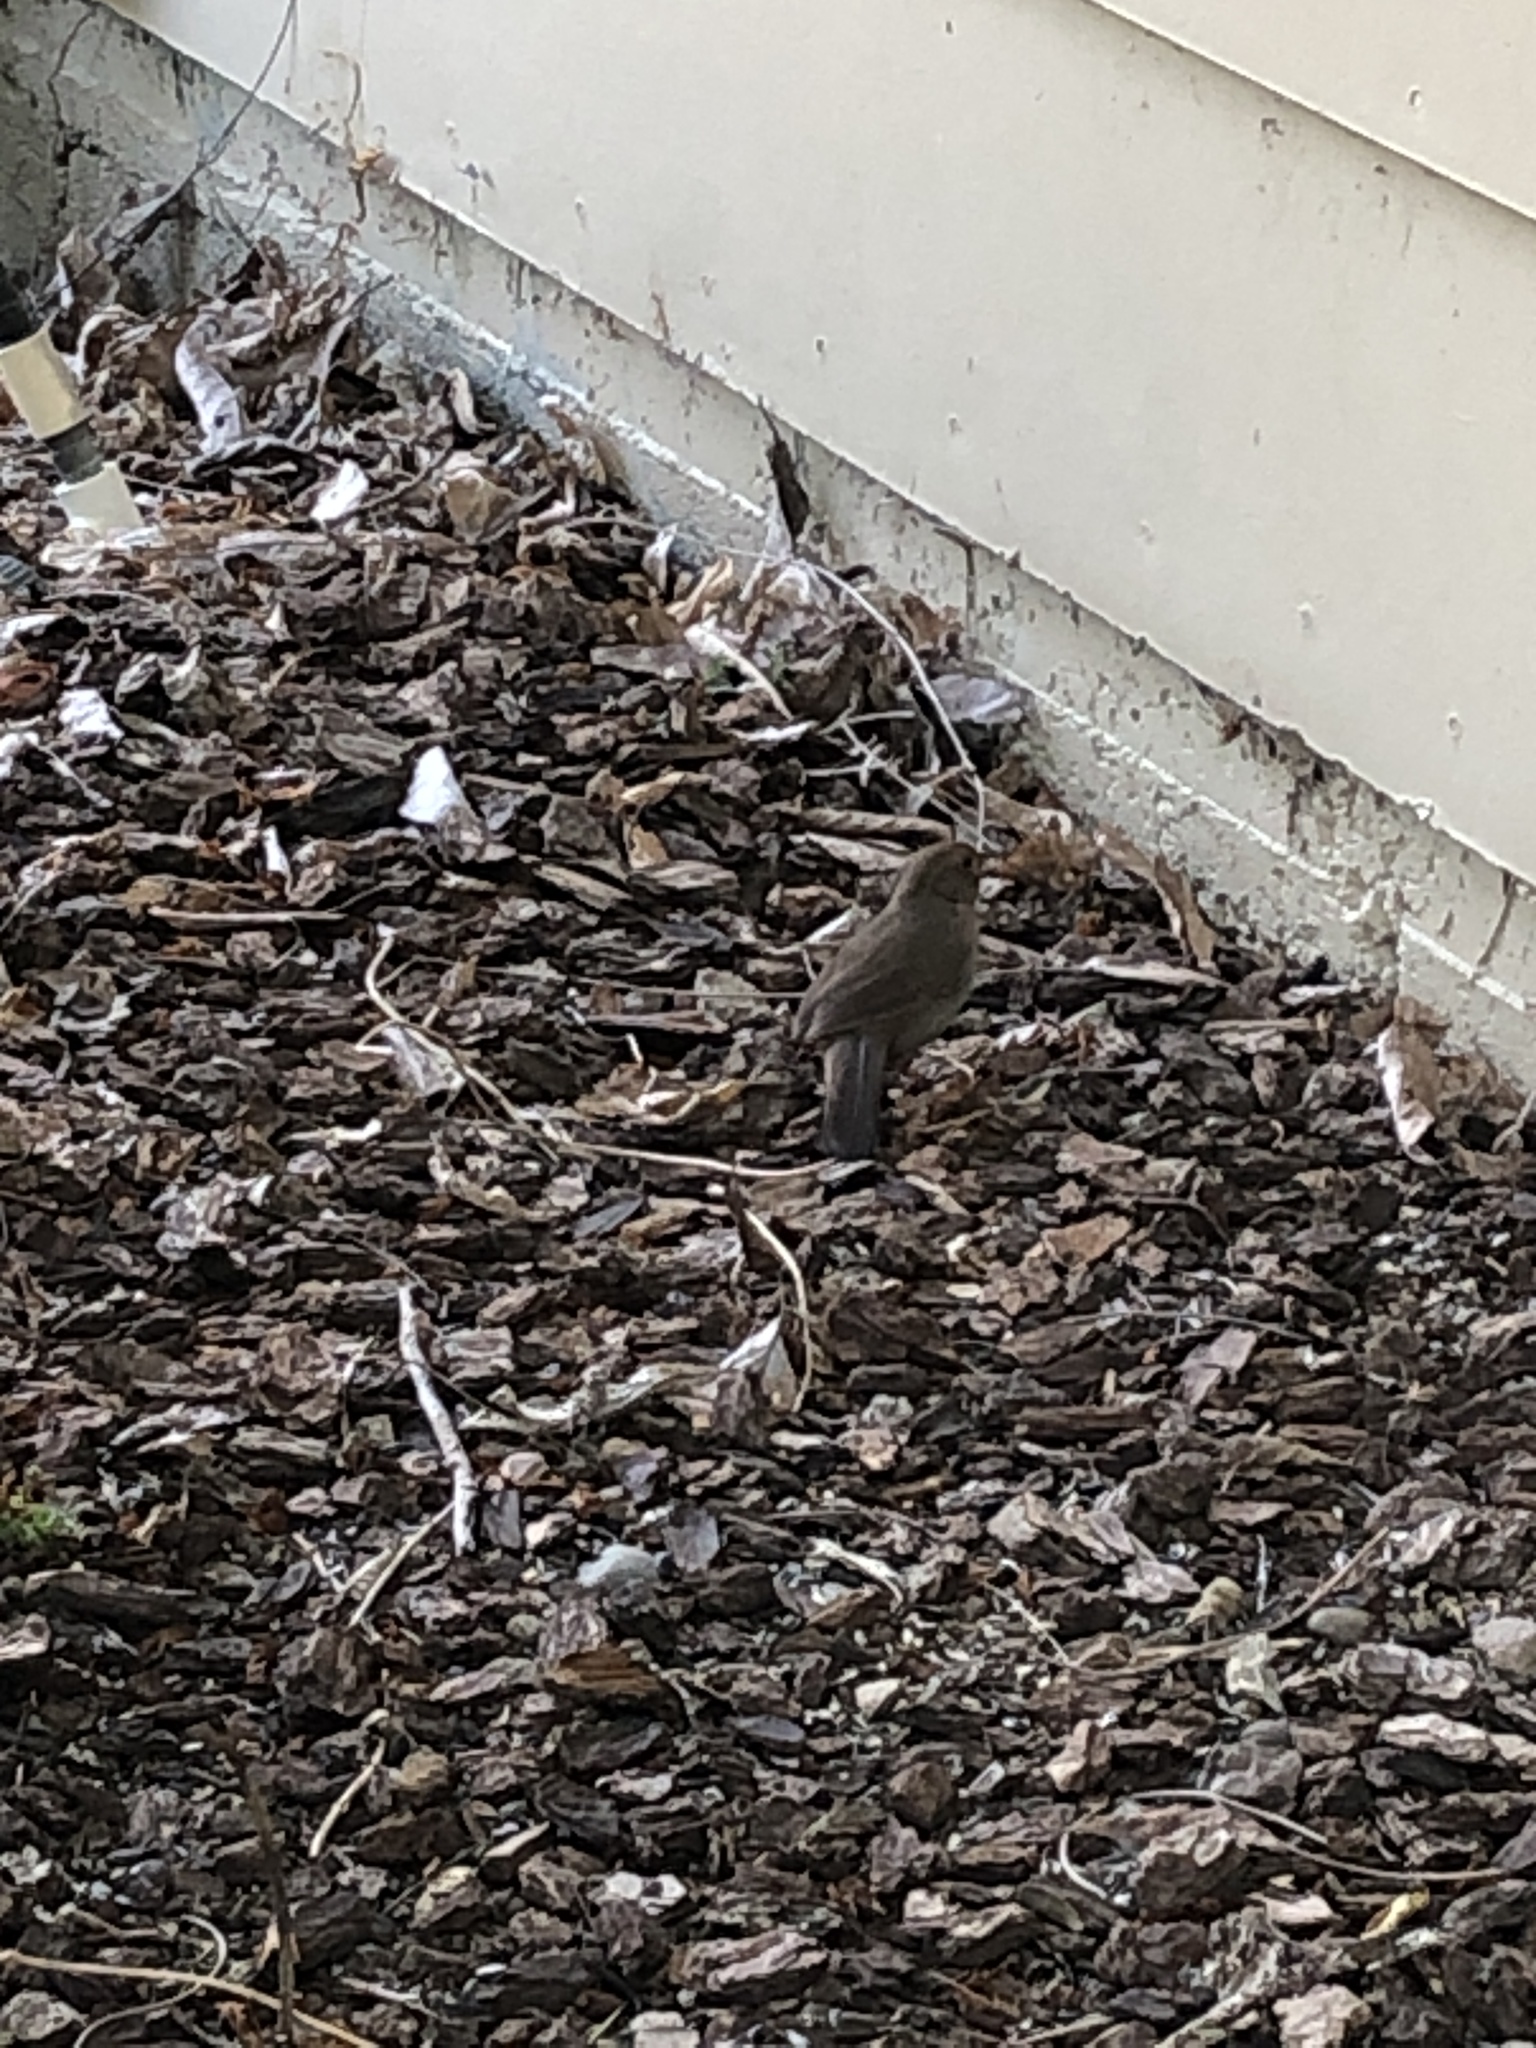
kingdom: Animalia
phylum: Chordata
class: Aves
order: Passeriformes
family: Passerellidae
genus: Melozone
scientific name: Melozone crissalis
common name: California towhee
